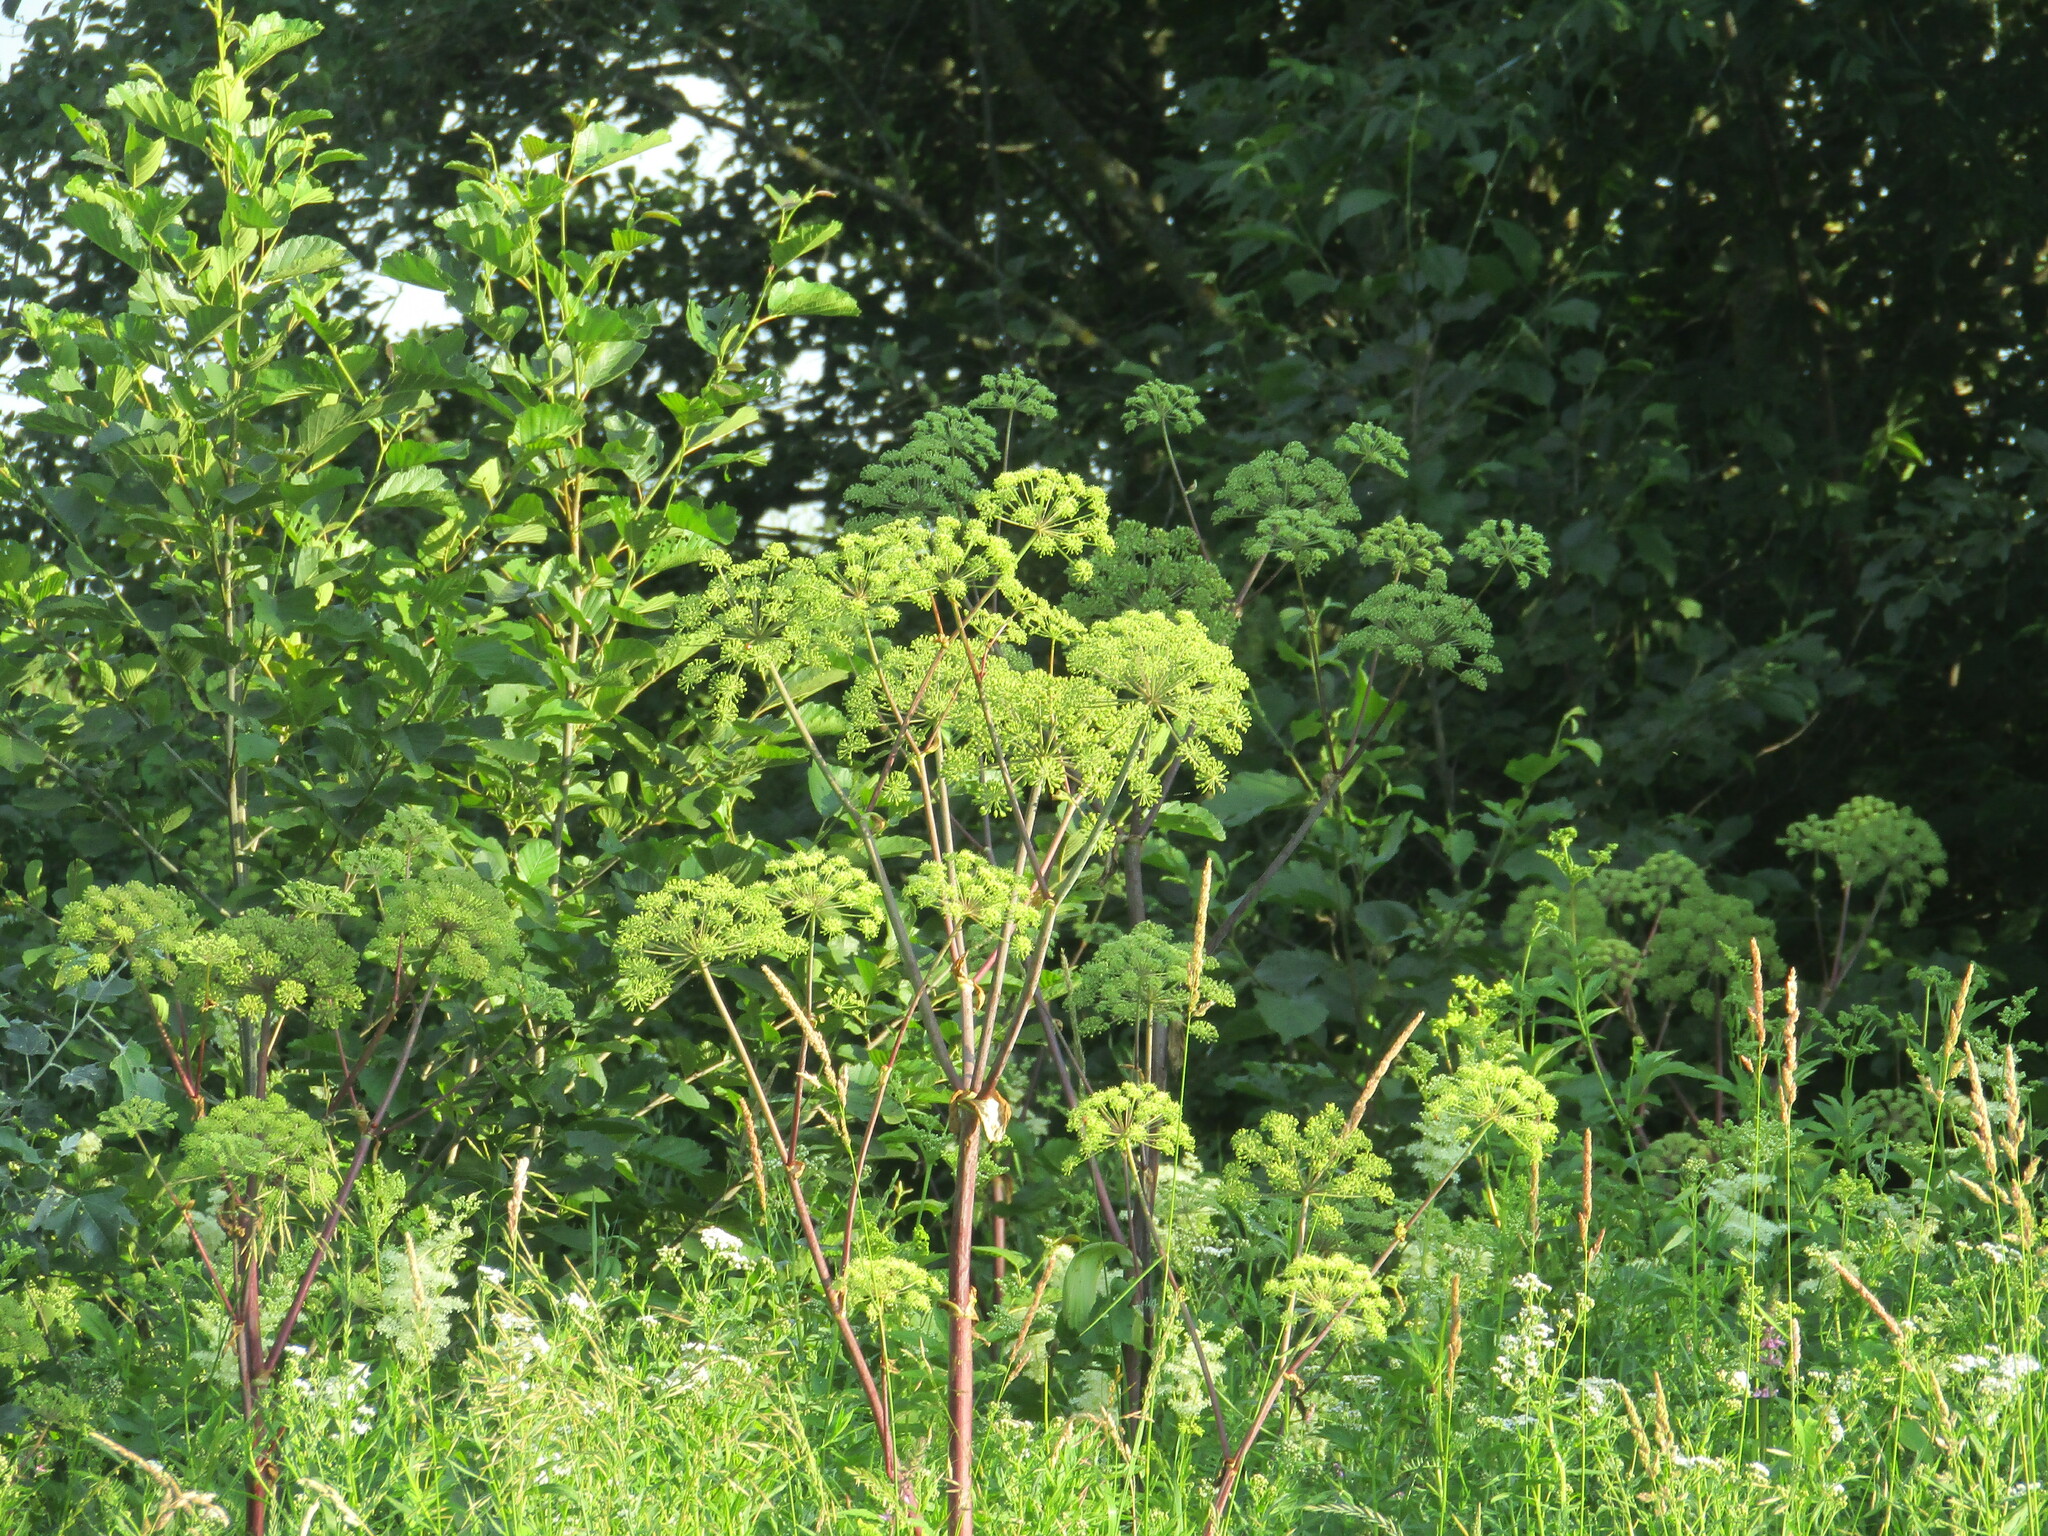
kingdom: Plantae
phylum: Tracheophyta
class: Magnoliopsida
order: Apiales
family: Apiaceae
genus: Angelica
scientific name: Angelica archangelica
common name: Garden angelica
